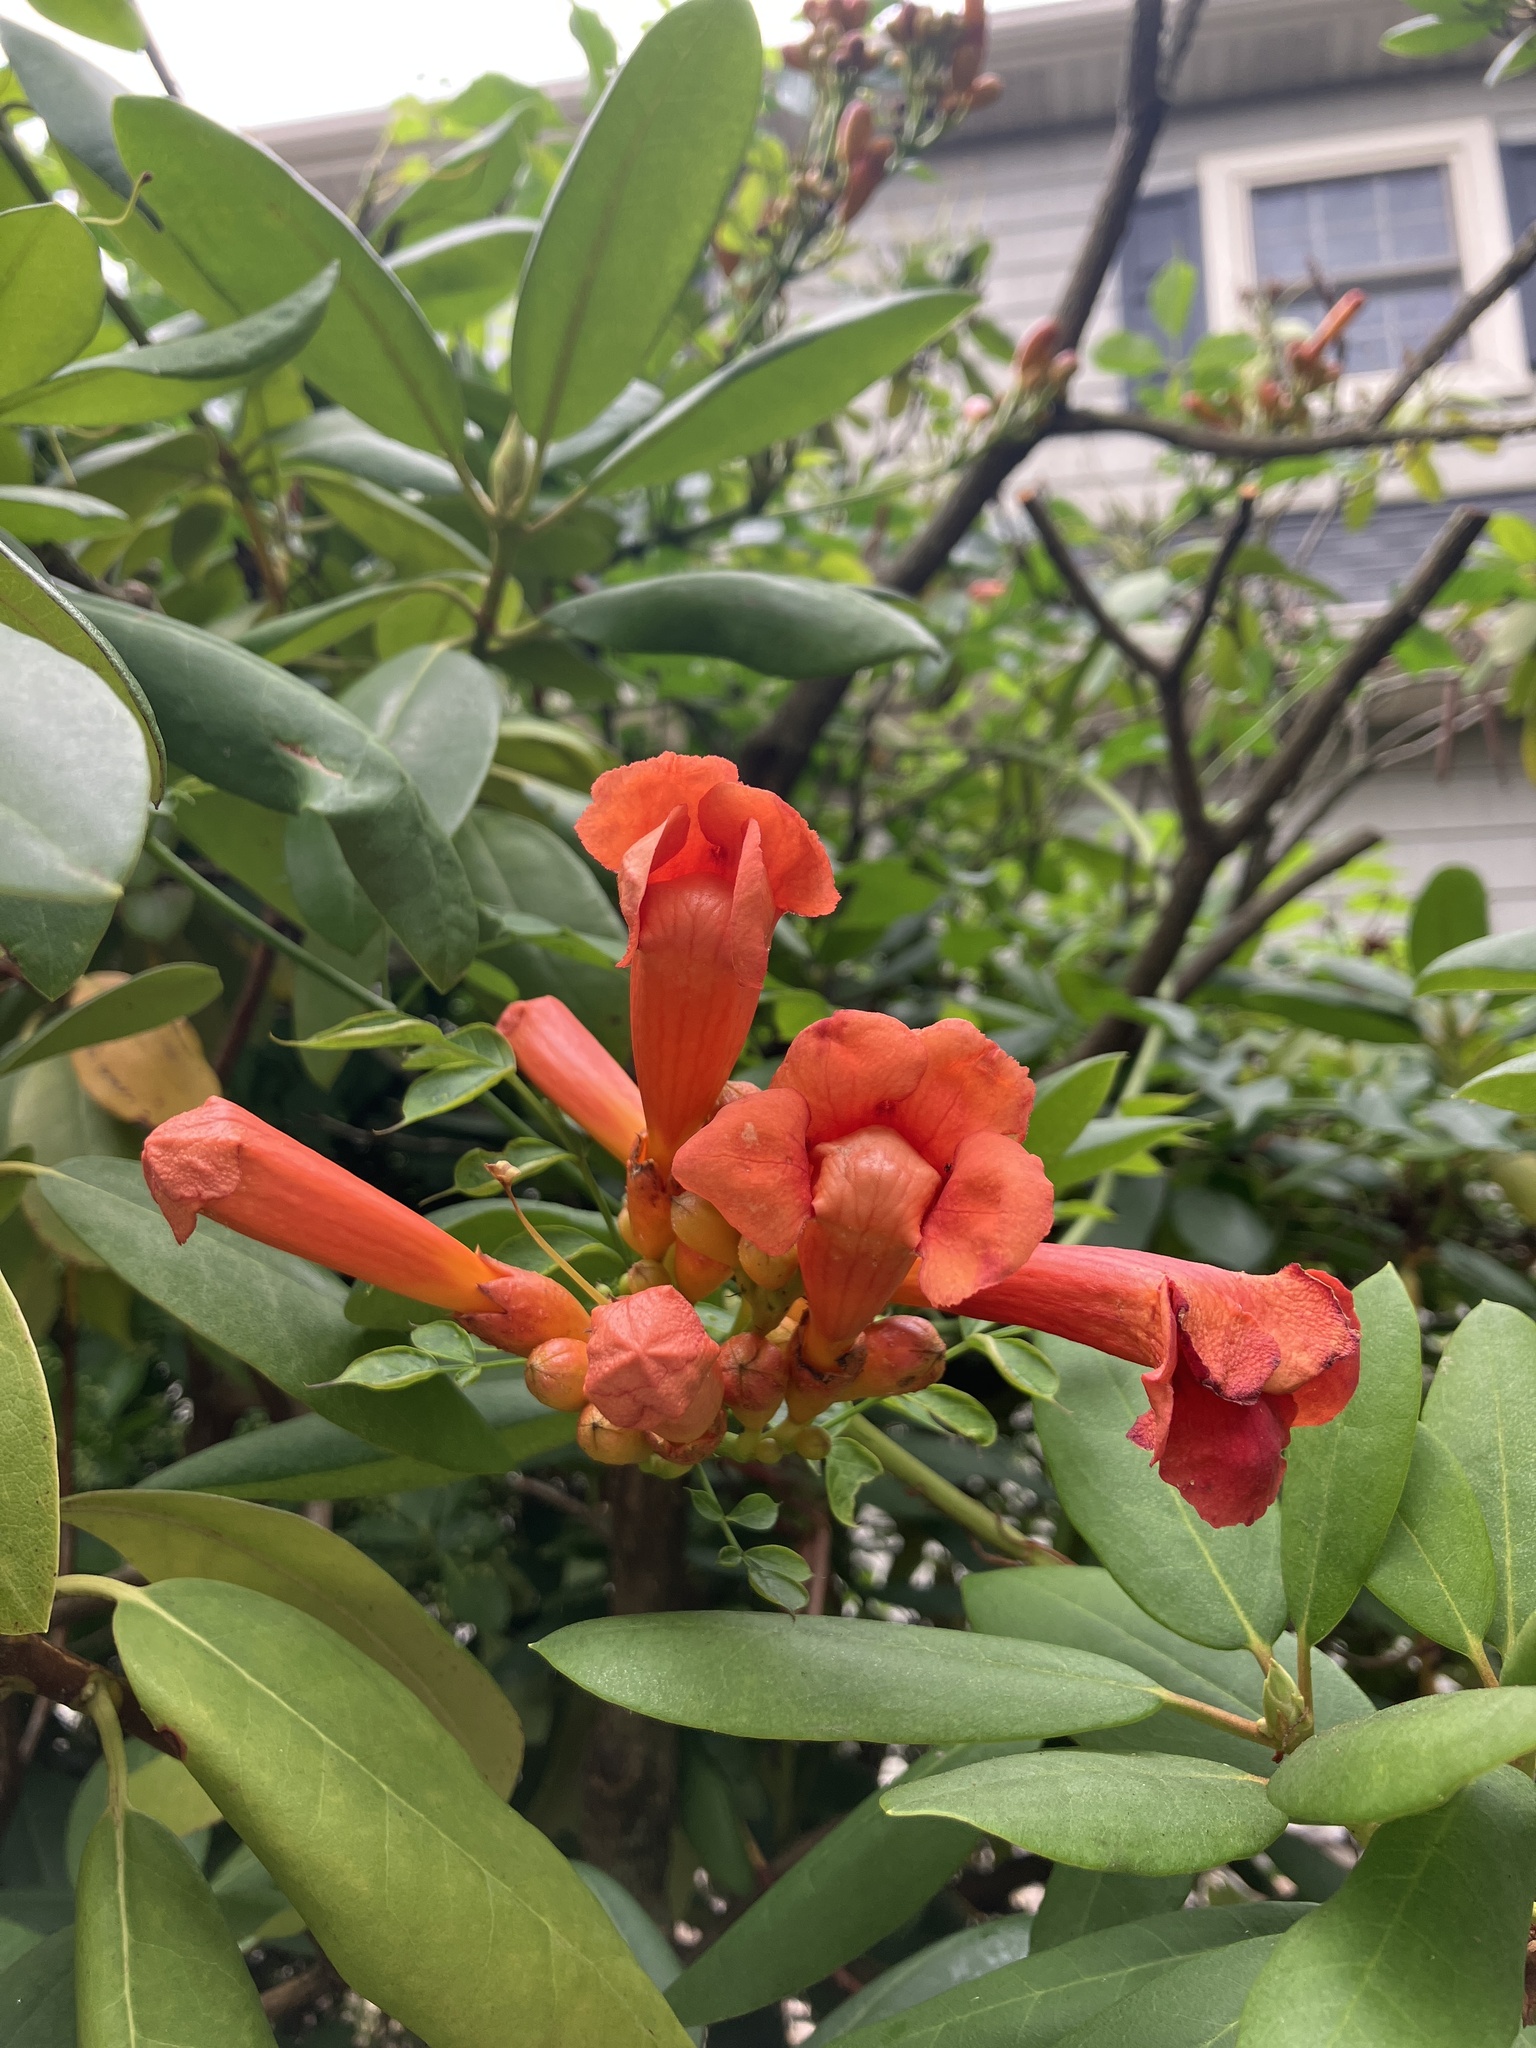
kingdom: Plantae
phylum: Tracheophyta
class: Magnoliopsida
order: Lamiales
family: Bignoniaceae
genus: Campsis
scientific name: Campsis radicans
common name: Trumpet-creeper
